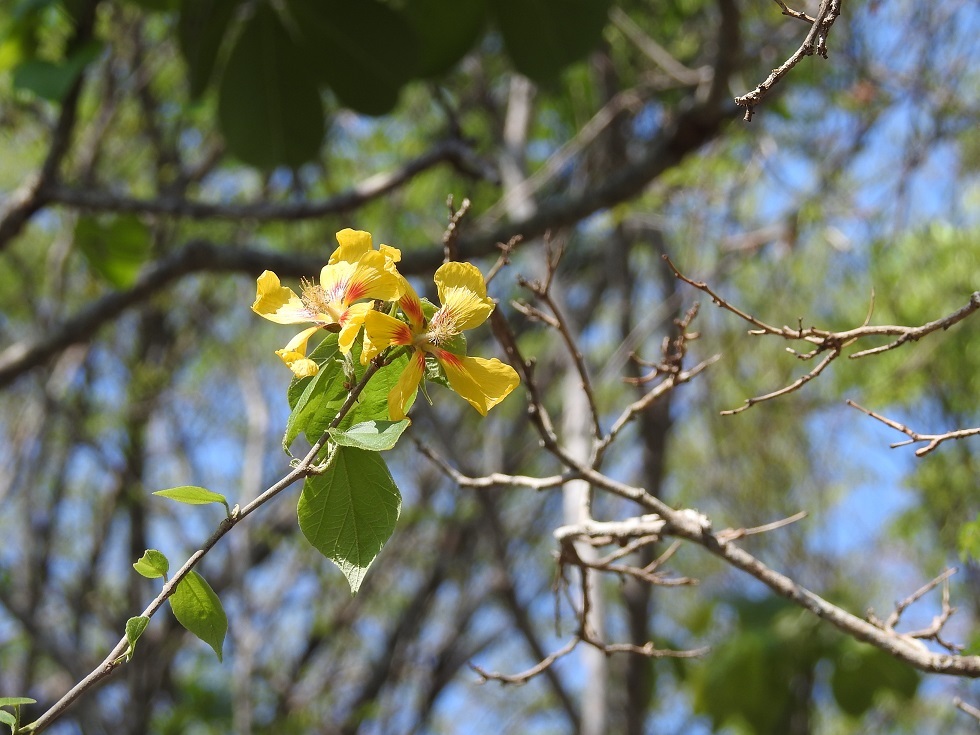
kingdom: Plantae
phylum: Tracheophyta
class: Magnoliopsida
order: Malvales
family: Malvaceae
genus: Bakeridesia
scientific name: Bakeridesia pittieri
